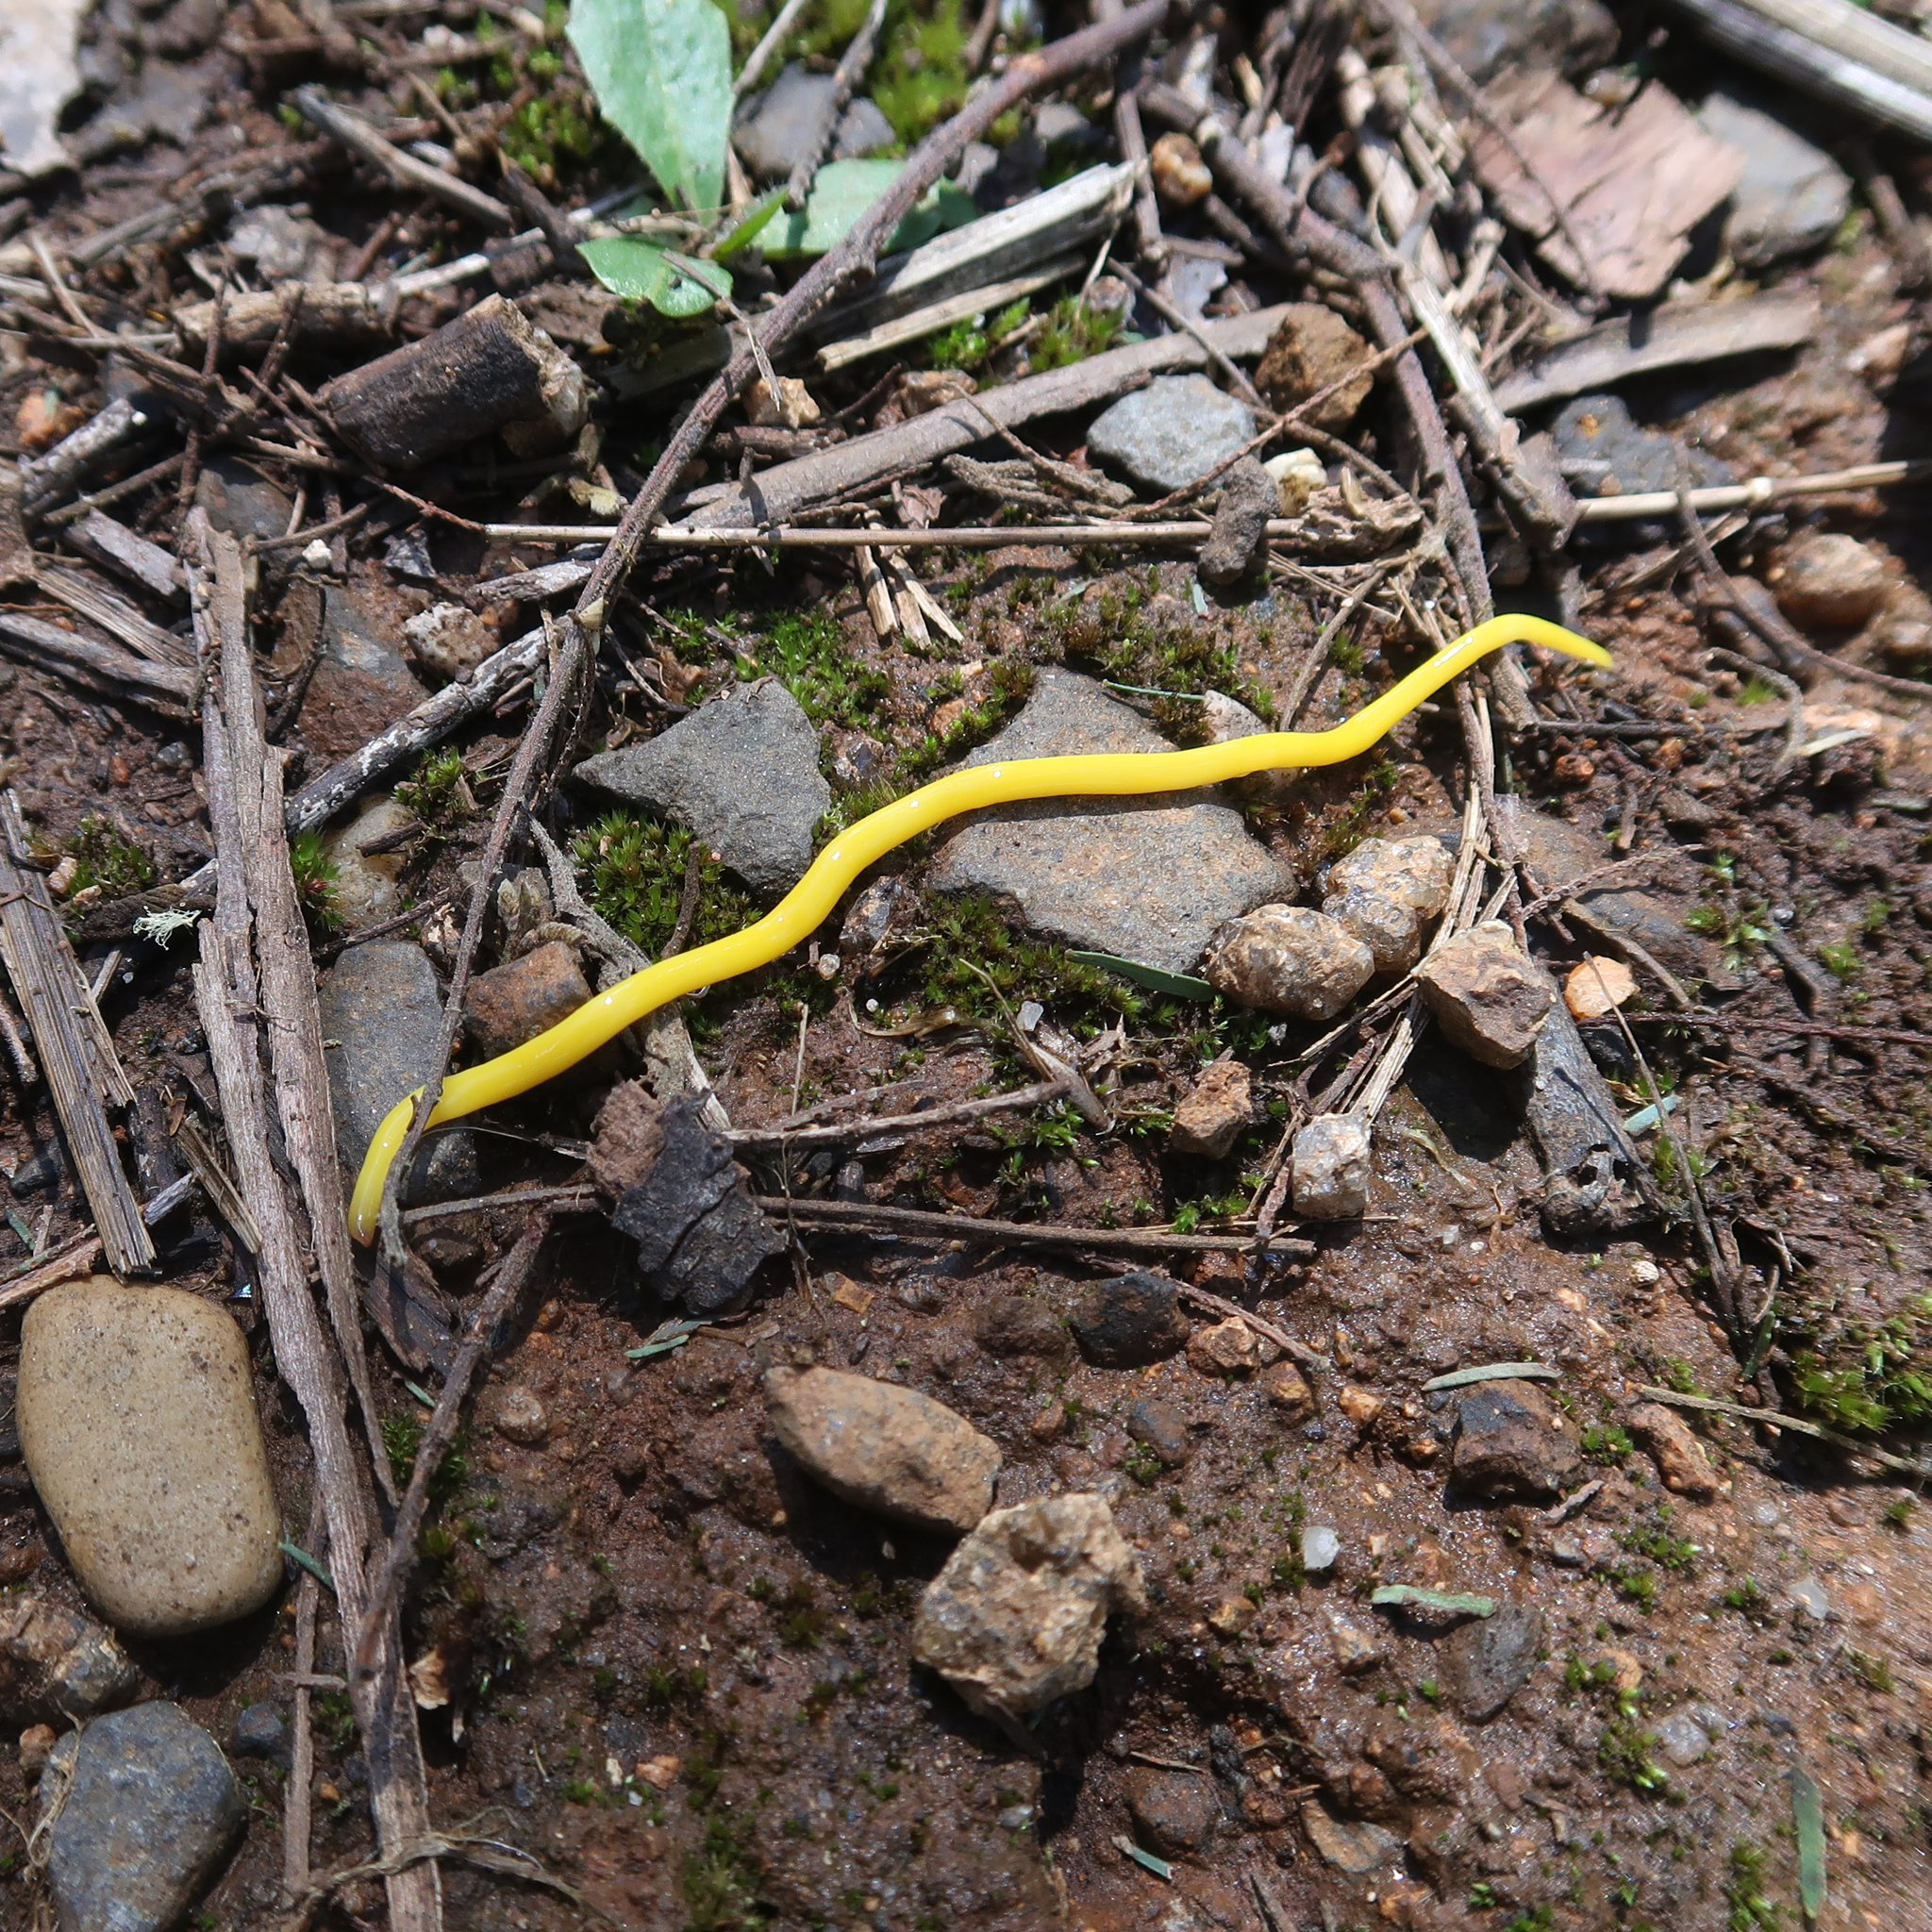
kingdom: Animalia
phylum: Platyhelminthes
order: Tricladida
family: Geoplanidae
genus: Fletchamia
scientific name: Fletchamia sugdeni
